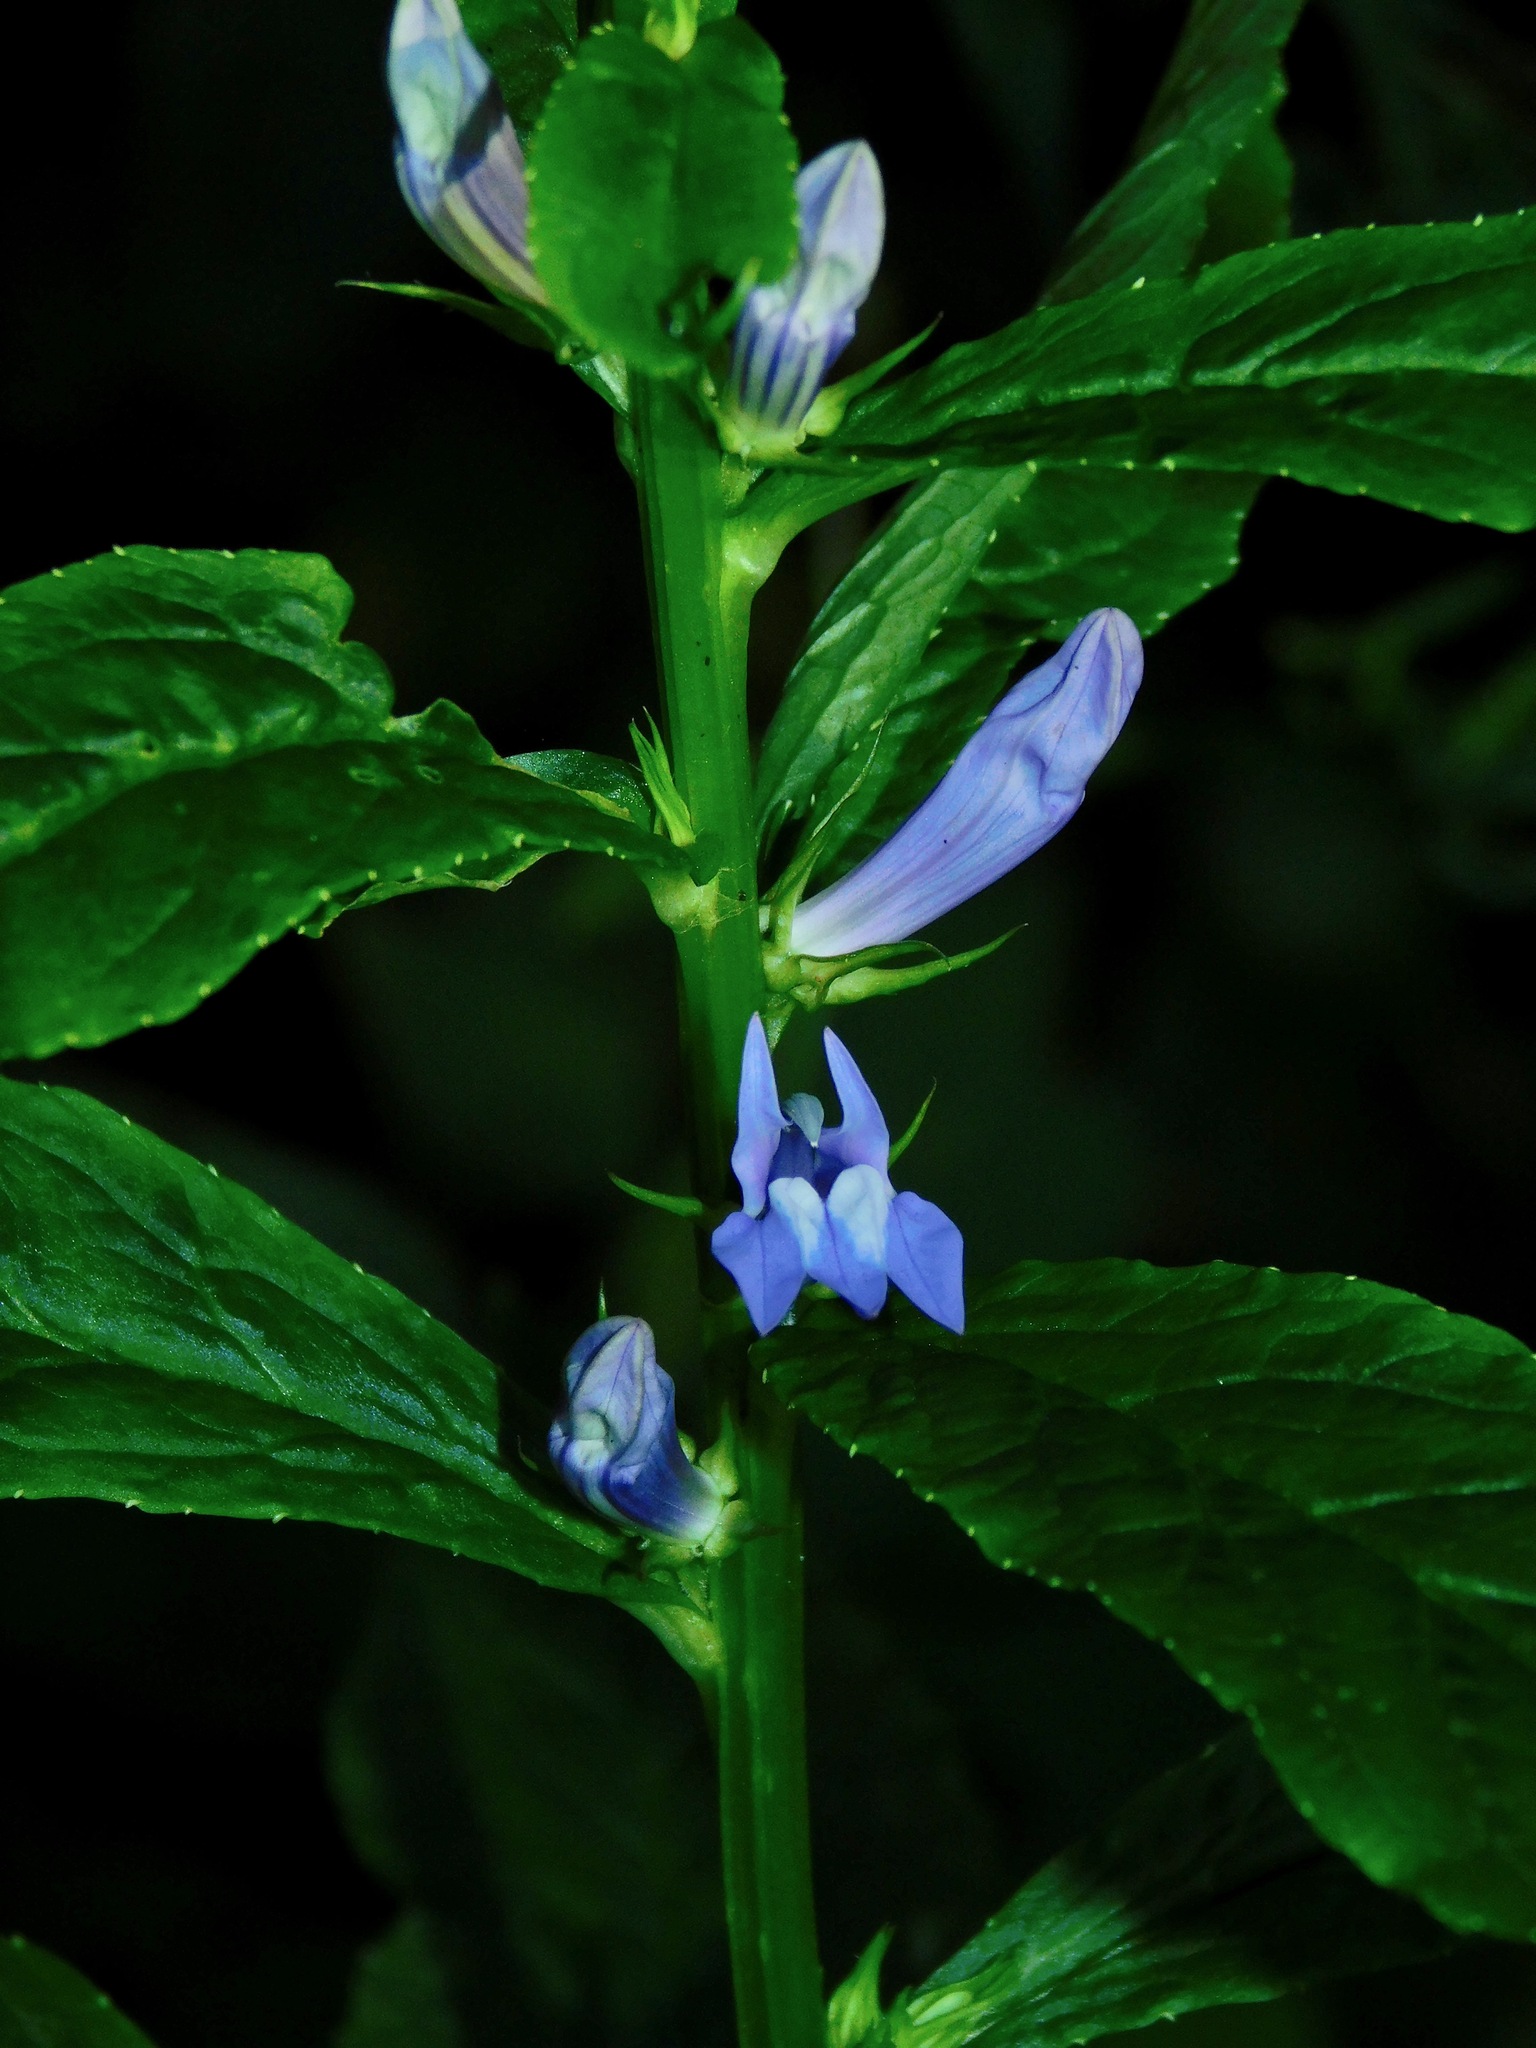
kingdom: Plantae
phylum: Tracheophyta
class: Magnoliopsida
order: Asterales
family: Campanulaceae
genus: Lobelia
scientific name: Lobelia siphilitica
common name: Great lobelia
